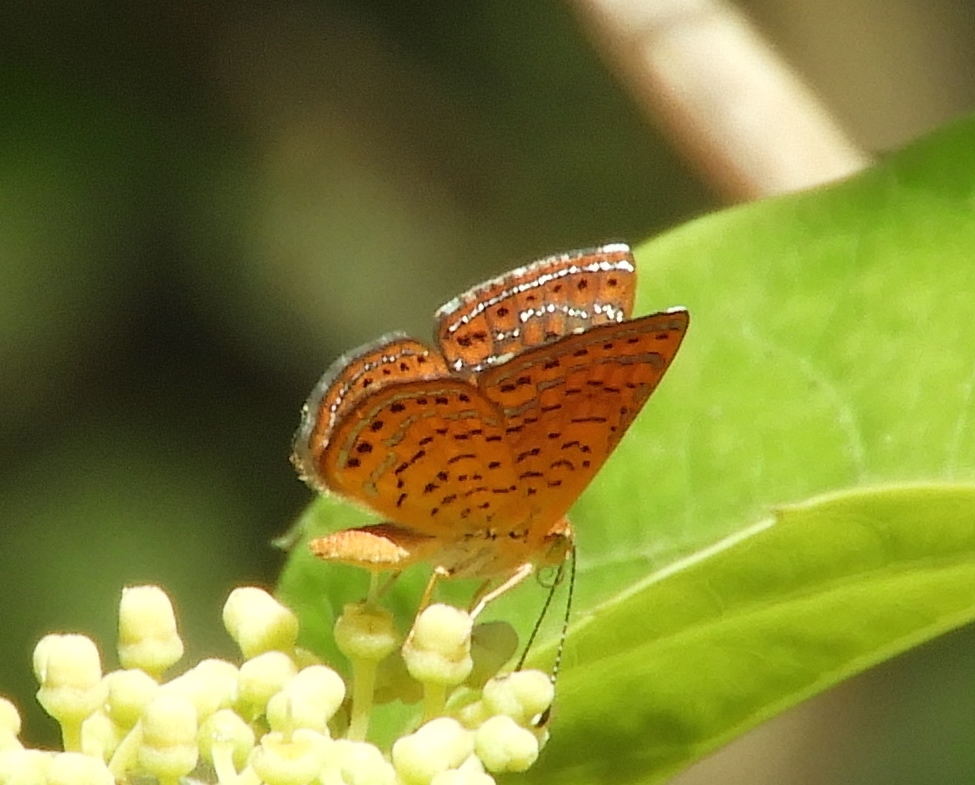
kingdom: Animalia
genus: Calephelis
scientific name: Calephelis
